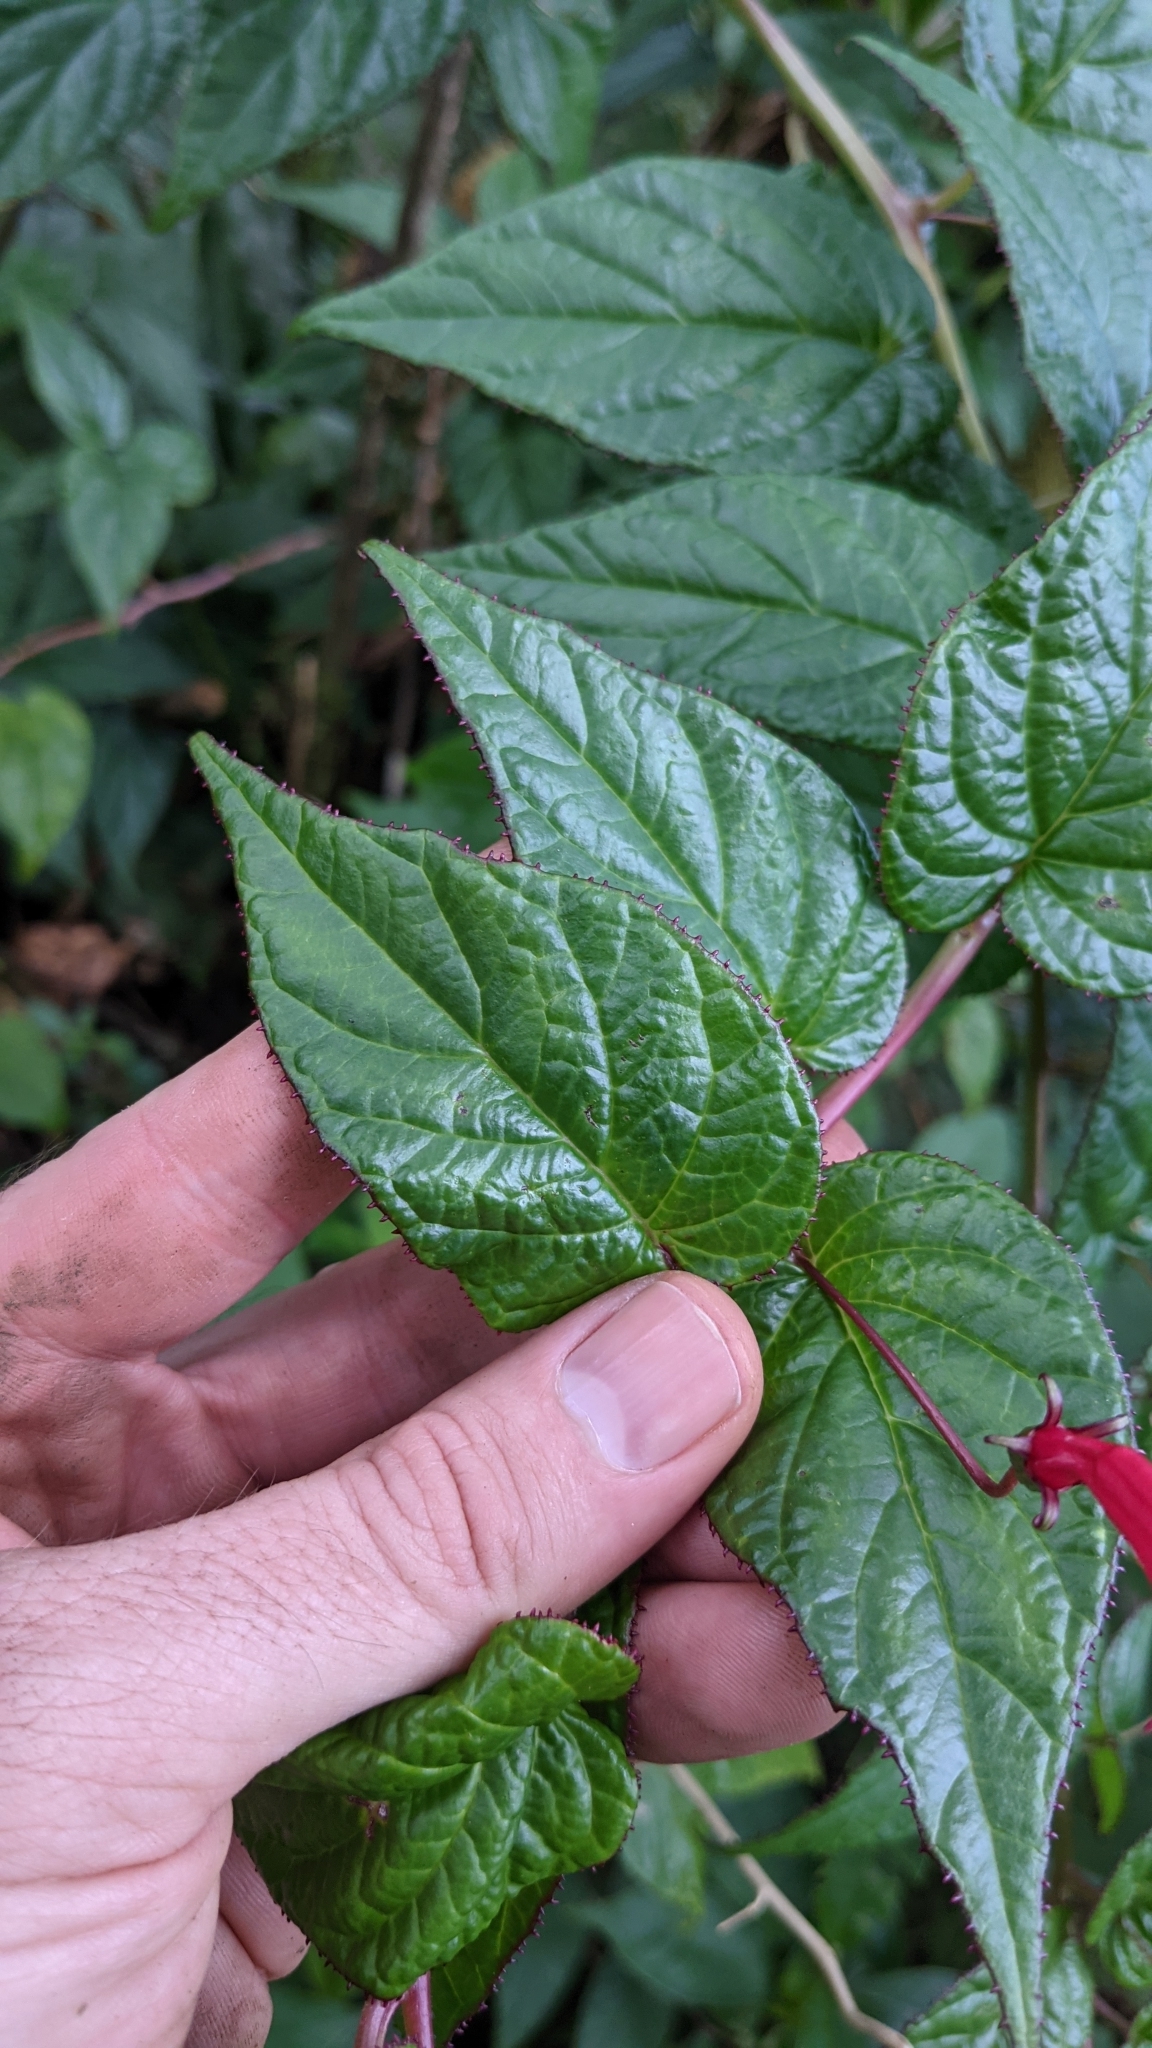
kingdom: Plantae
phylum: Tracheophyta
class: Magnoliopsida
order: Asterales
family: Campanulaceae
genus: Centropogon
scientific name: Centropogon costaricae
